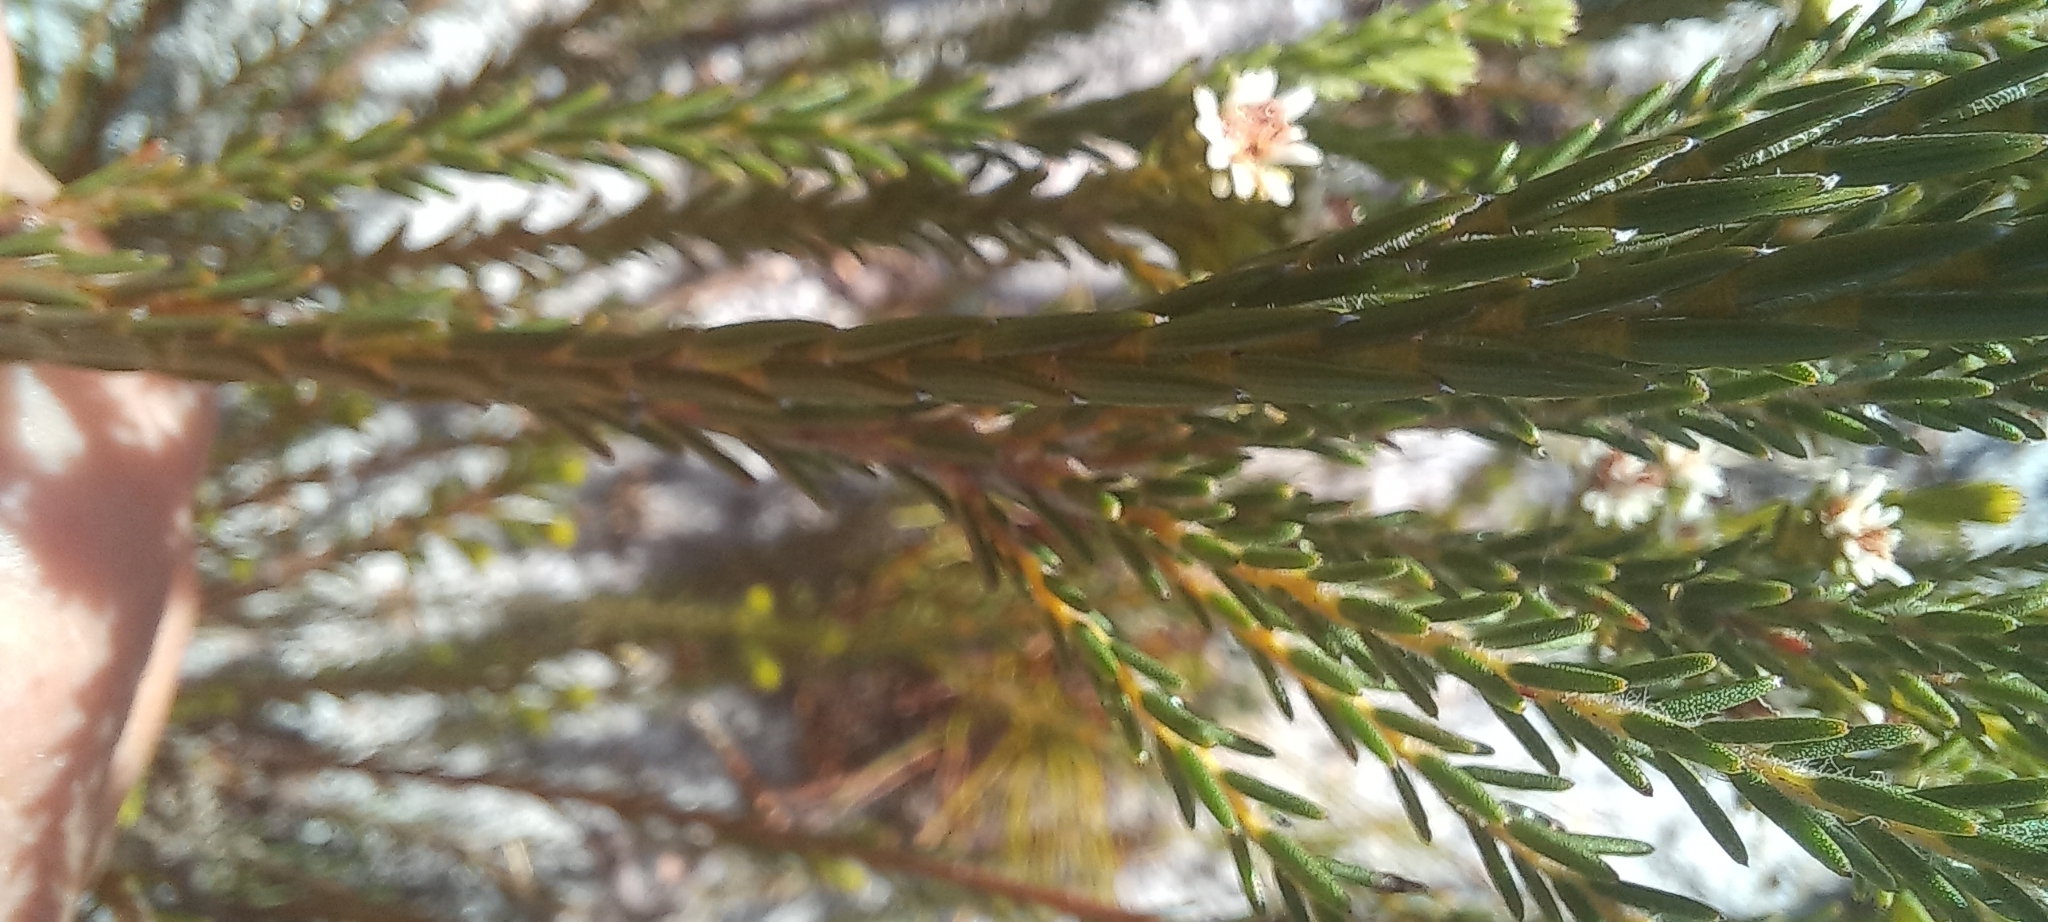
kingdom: Plantae
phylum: Tracheophyta
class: Magnoliopsida
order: Bruniales
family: Bruniaceae
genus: Staavia
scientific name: Staavia radiata
